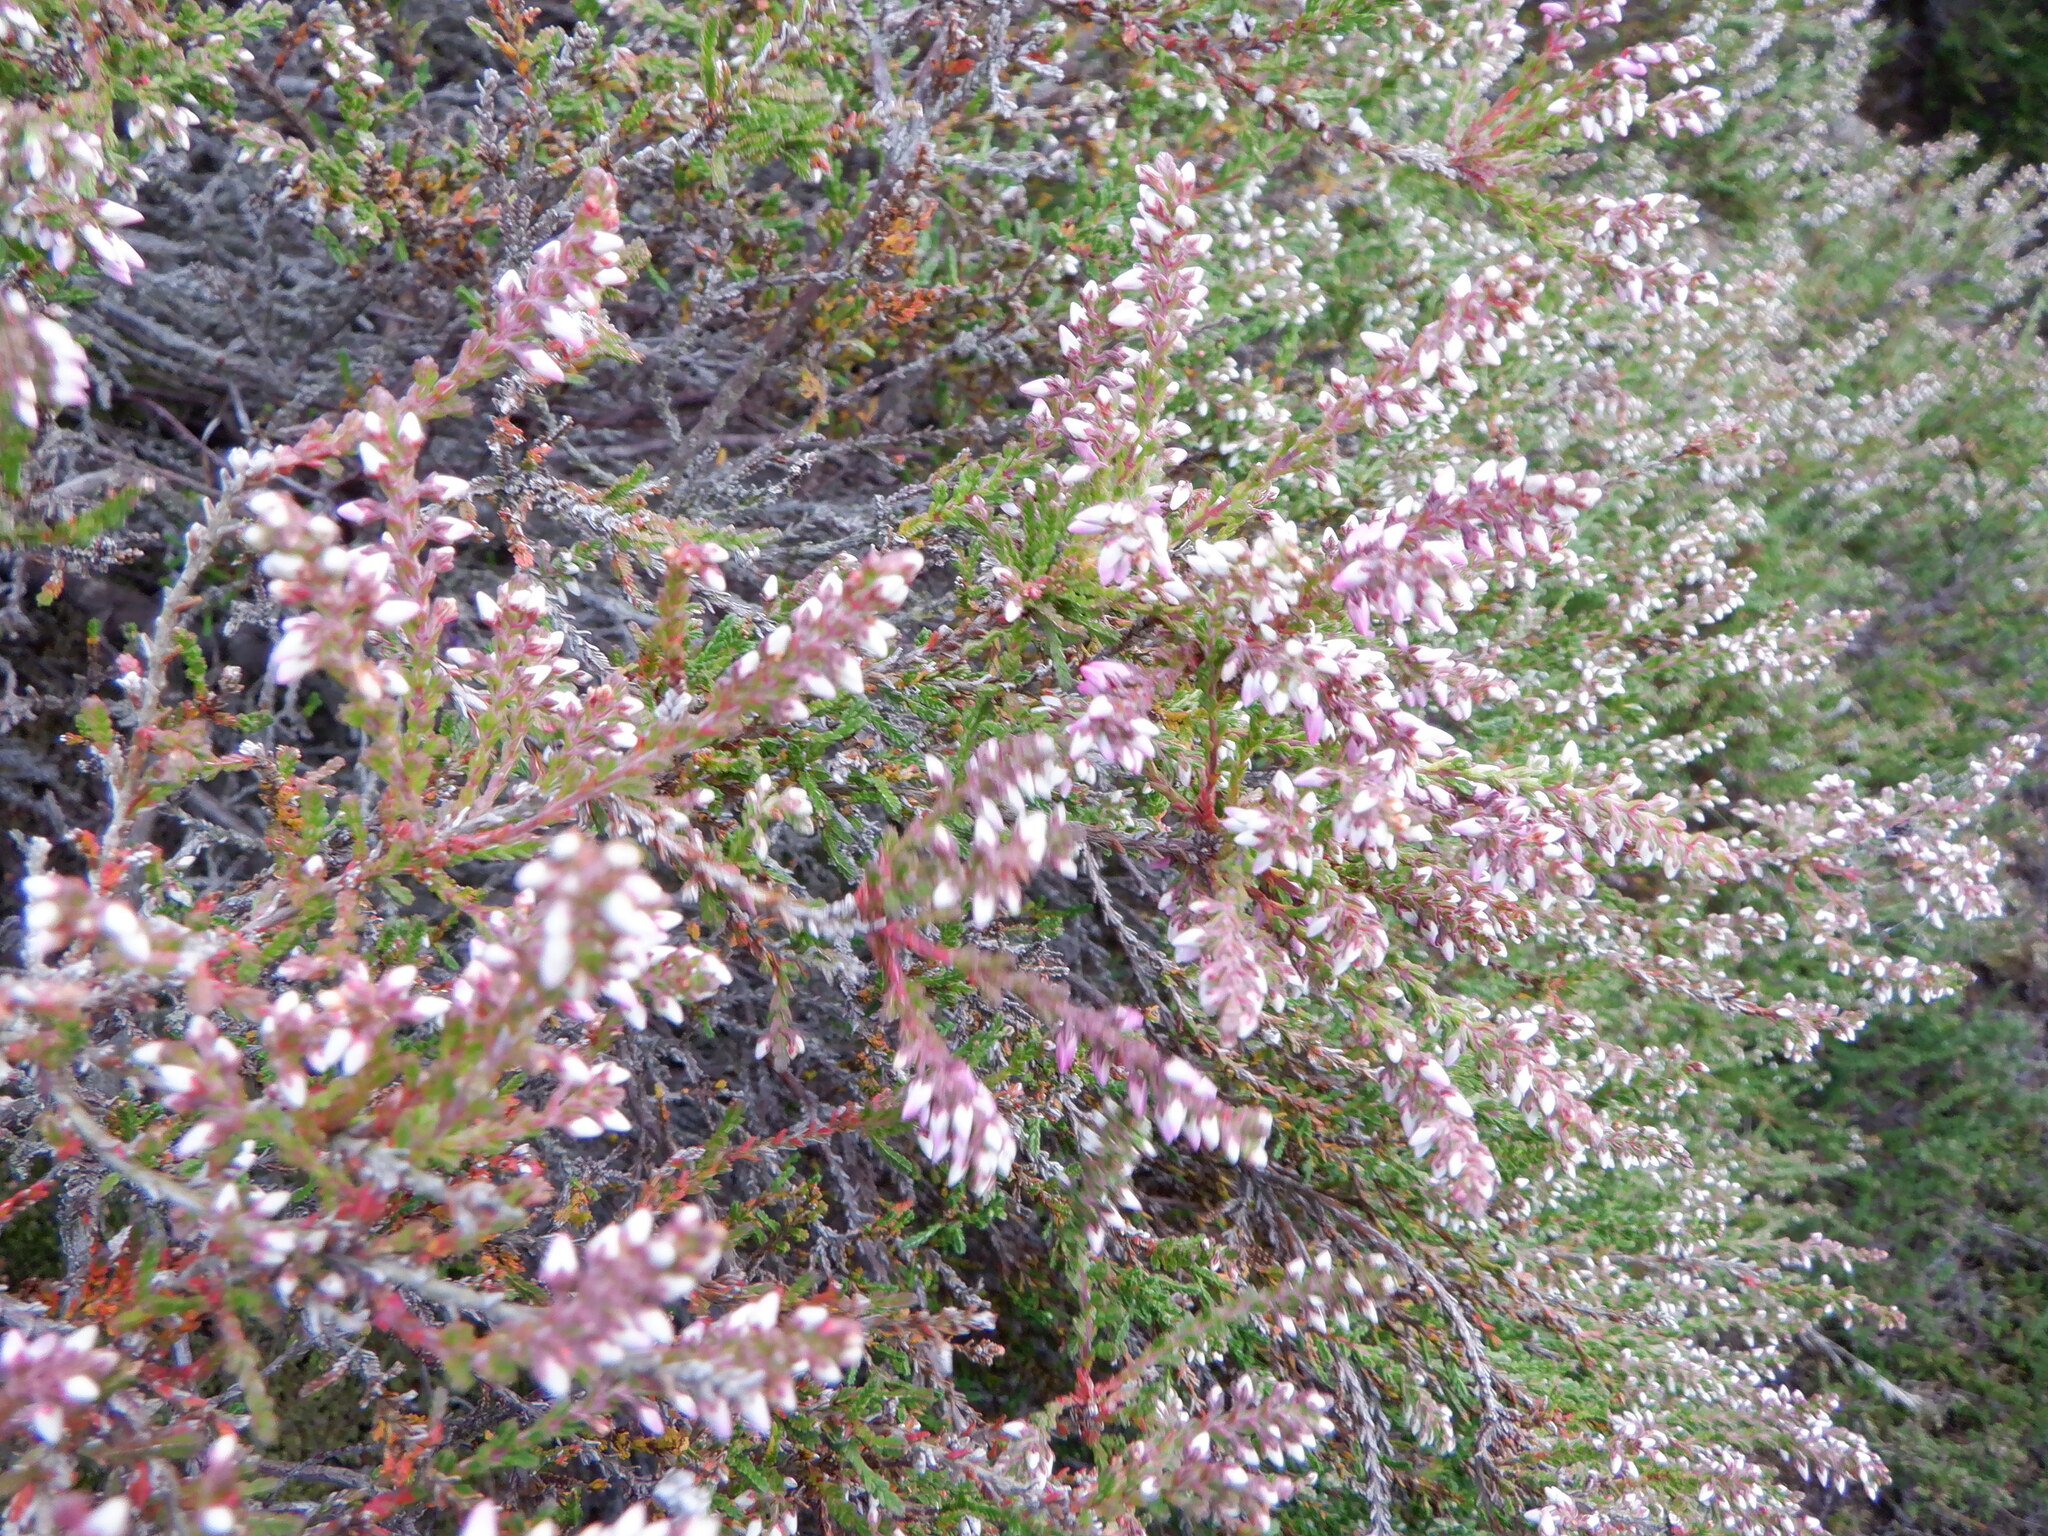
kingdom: Plantae
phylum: Tracheophyta
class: Magnoliopsida
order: Ericales
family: Ericaceae
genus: Calluna
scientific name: Calluna vulgaris
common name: Heather
